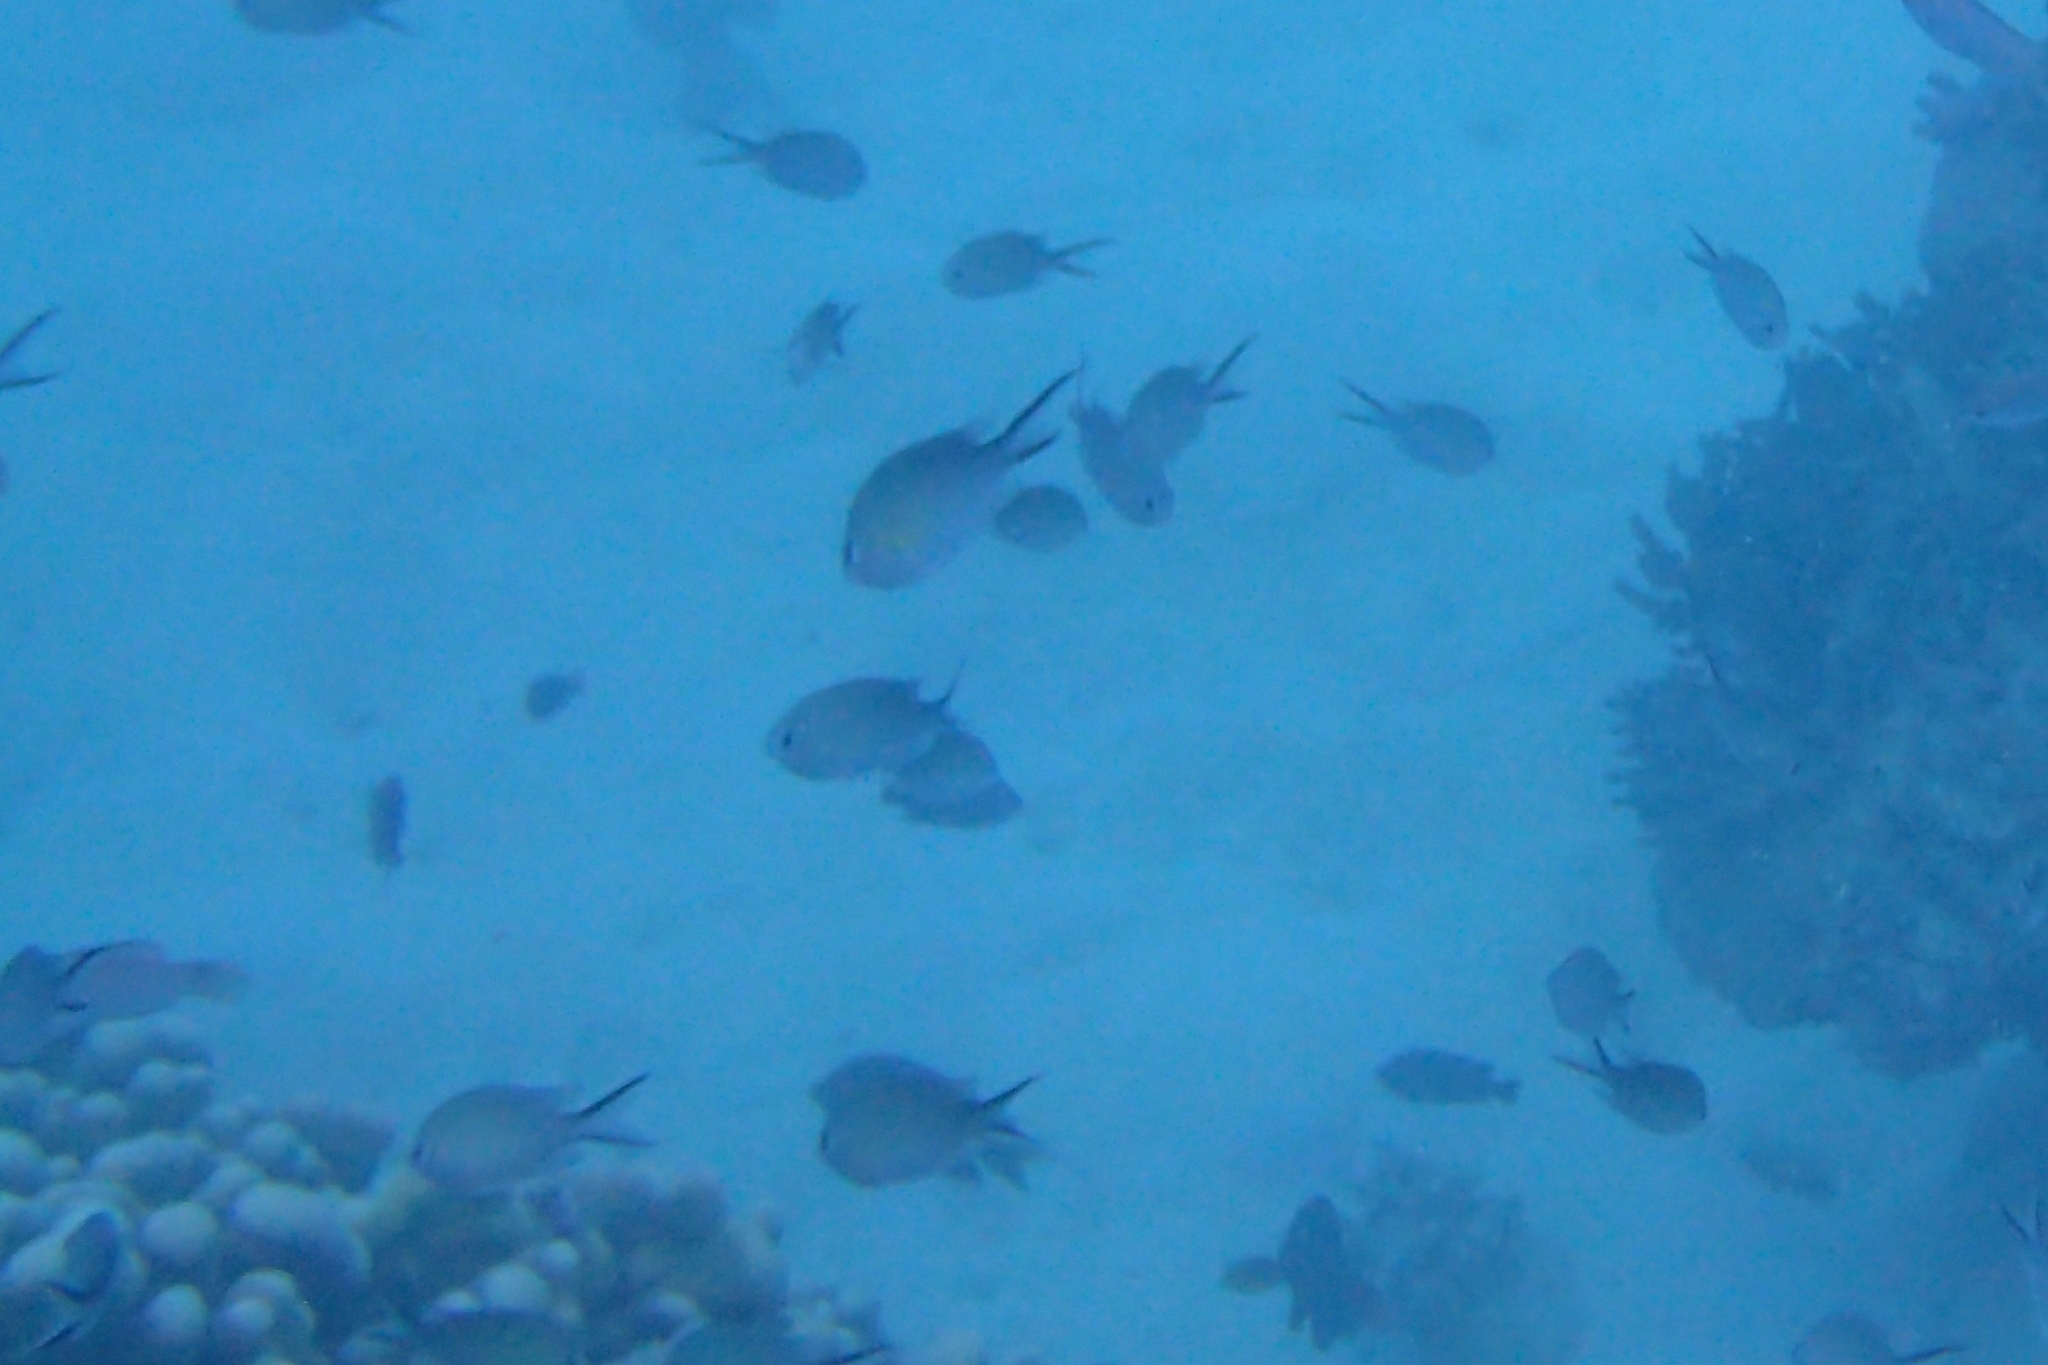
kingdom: Animalia
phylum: Chordata
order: Perciformes
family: Pomacentridae
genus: Chromis
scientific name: Chromis ternatensis
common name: Ternate chromis
